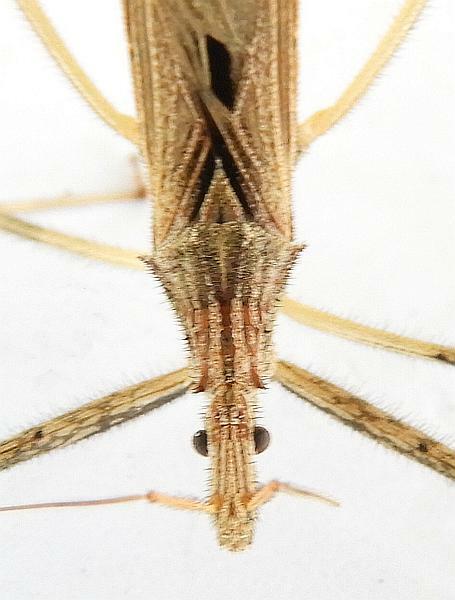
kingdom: Animalia
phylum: Arthropoda
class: Insecta
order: Hemiptera
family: Reduviidae
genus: Stenopoda
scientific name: Stenopoda spinulosa
